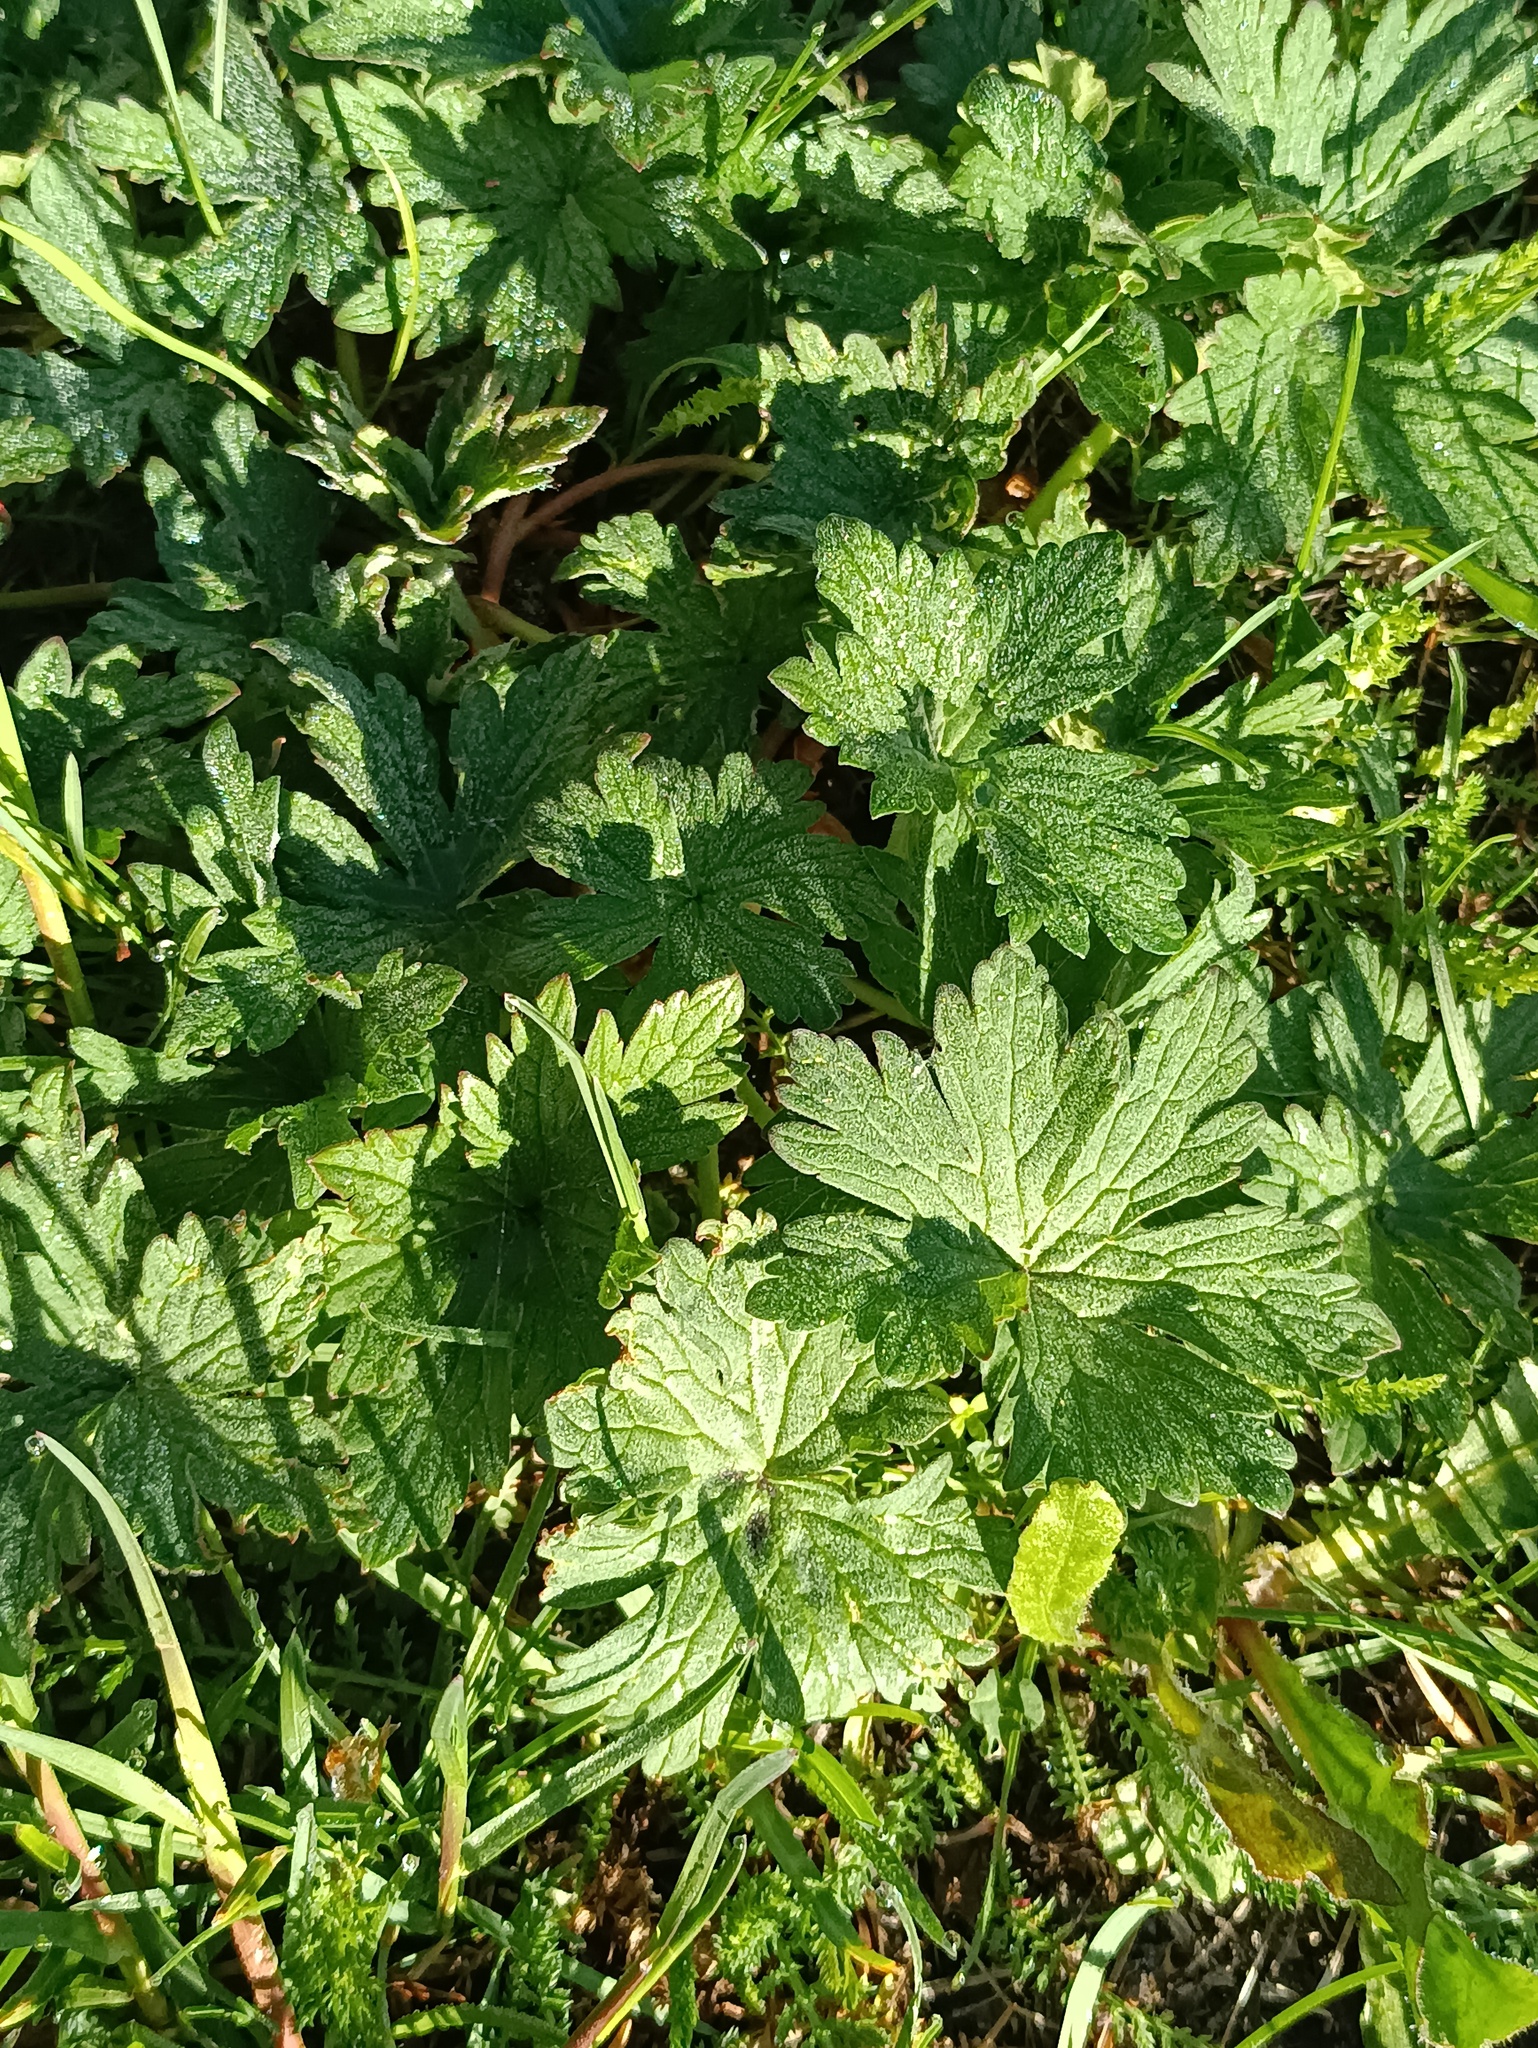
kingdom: Plantae
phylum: Tracheophyta
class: Magnoliopsida
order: Lamiales
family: Lamiaceae
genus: Leonurus
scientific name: Leonurus quinquelobatus
